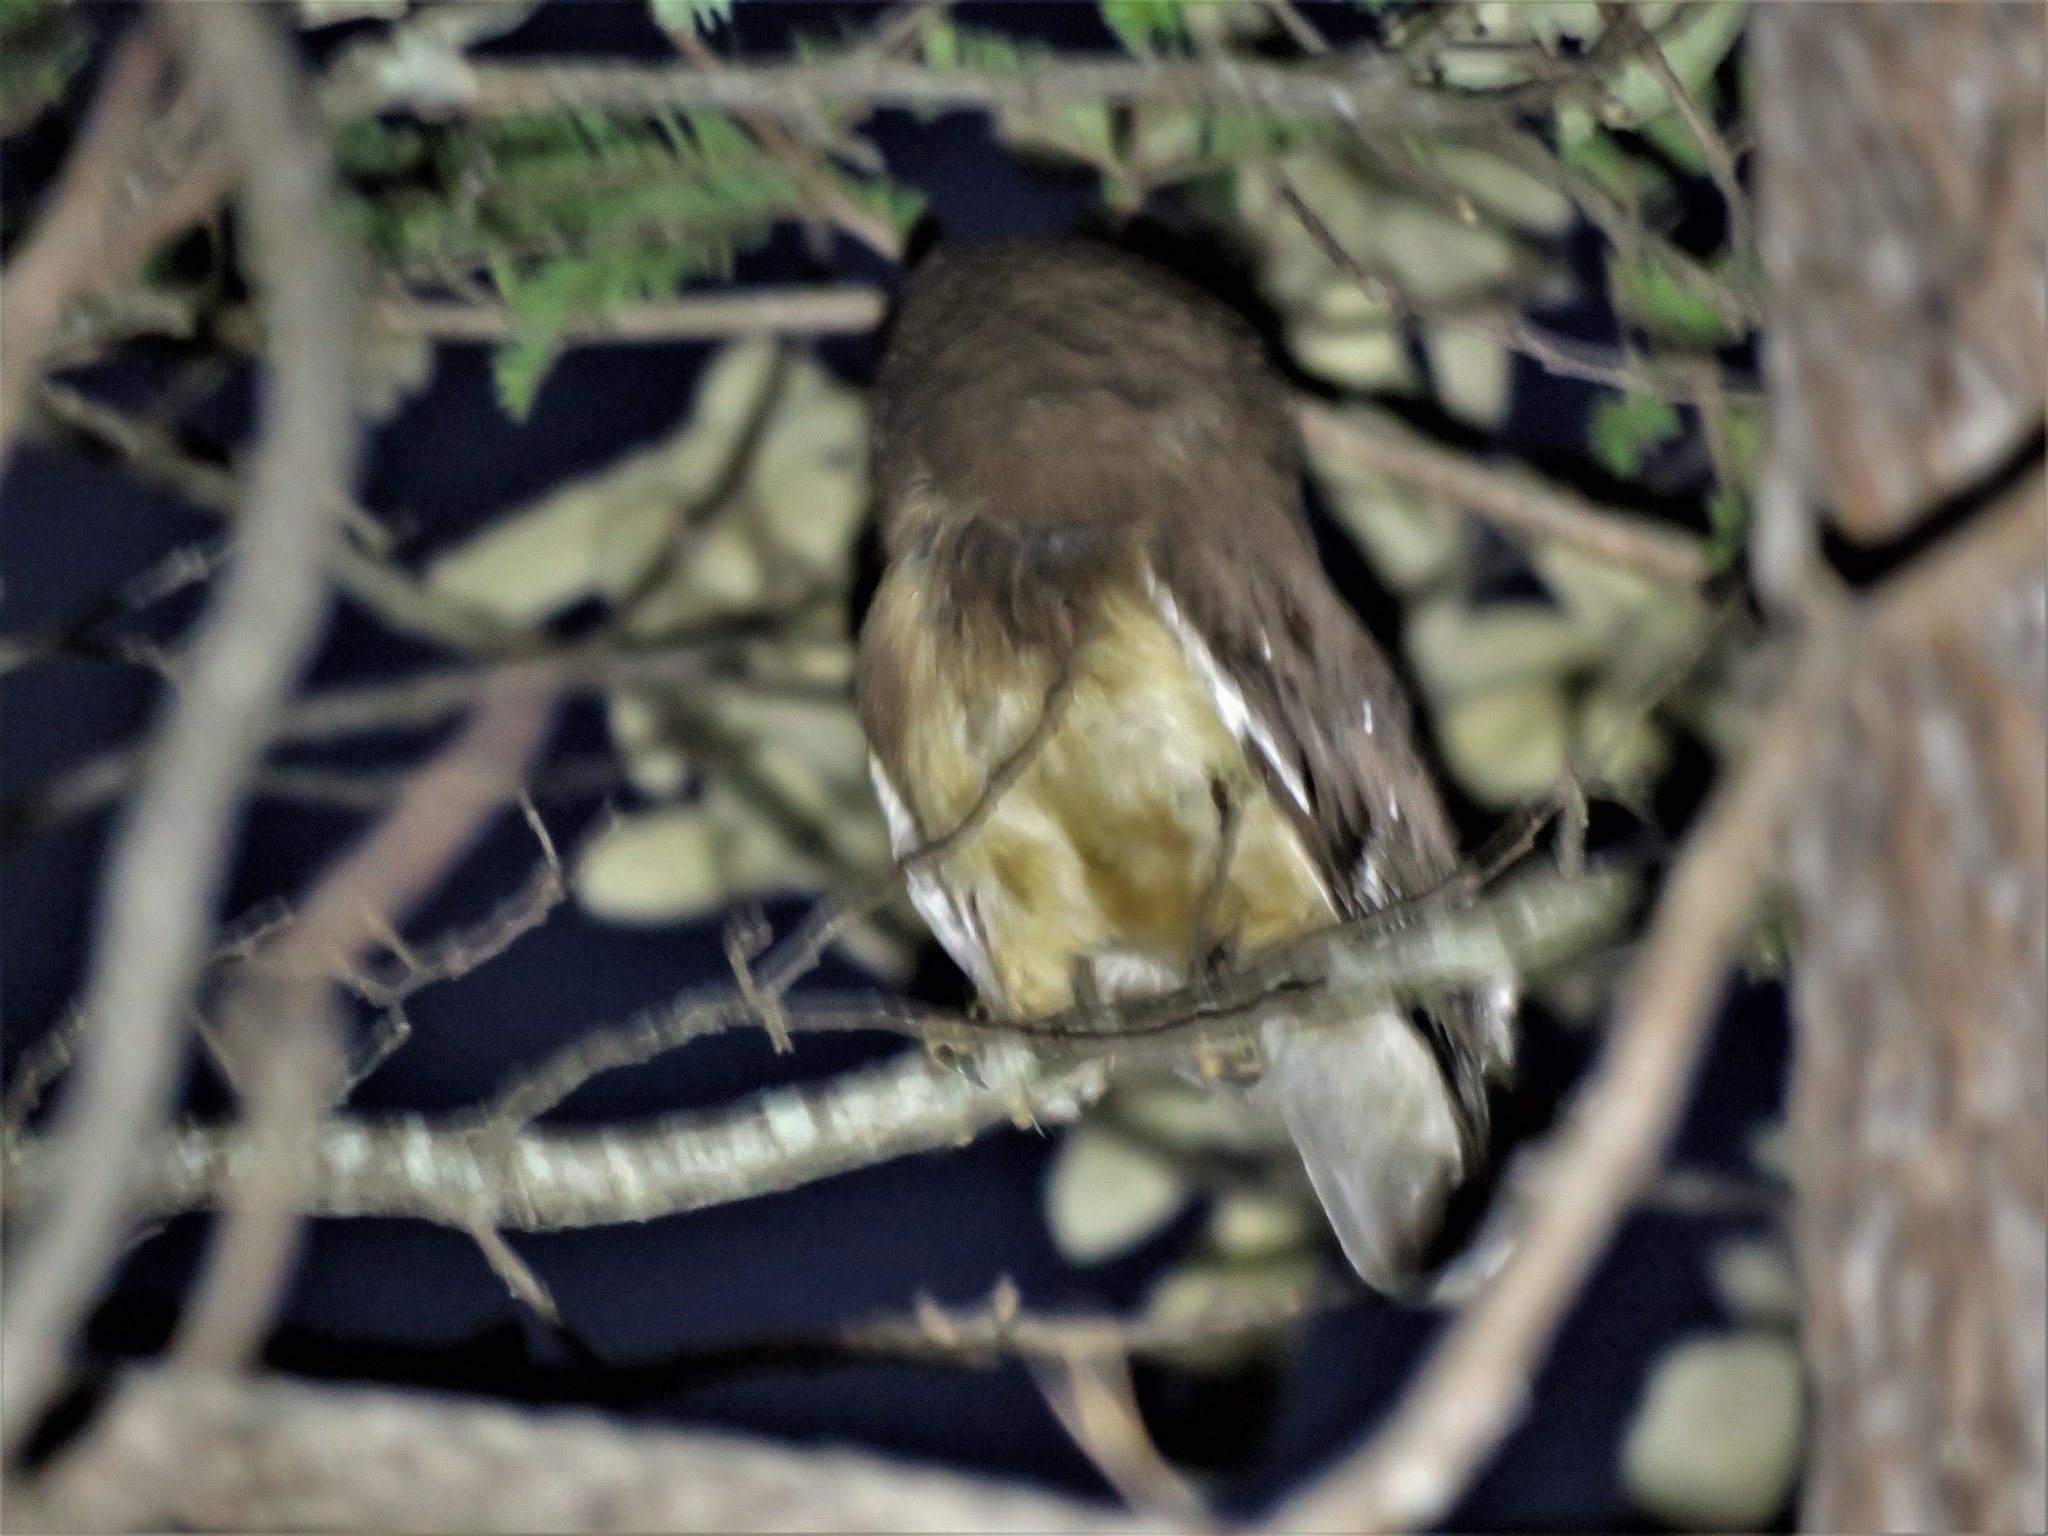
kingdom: Animalia
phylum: Chordata
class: Aves
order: Strigiformes
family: Strigidae
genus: Aegolius
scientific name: Aegolius acadicus
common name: Northern saw-whet owl
